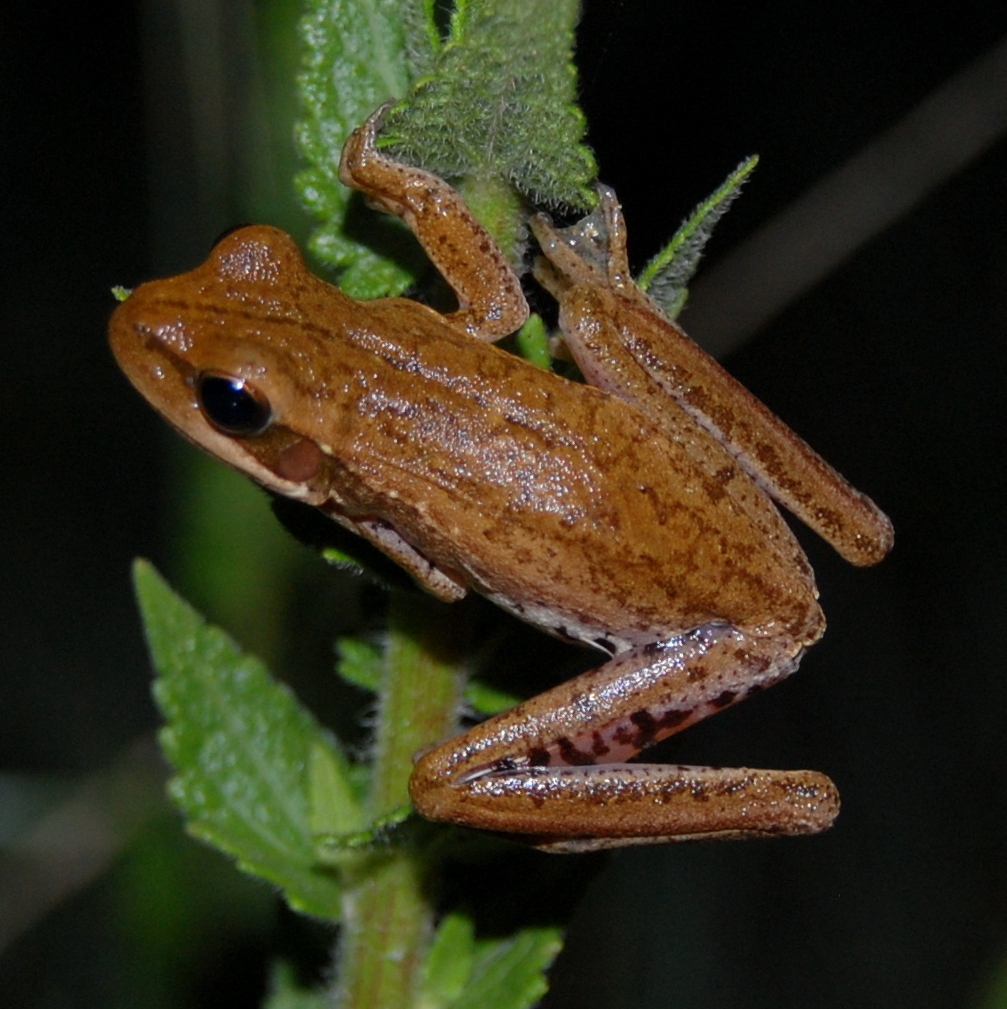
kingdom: Animalia
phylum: Chordata
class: Amphibia
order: Anura
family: Hylidae
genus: Boana
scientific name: Boana pulchella
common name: Montevideo treefrog
